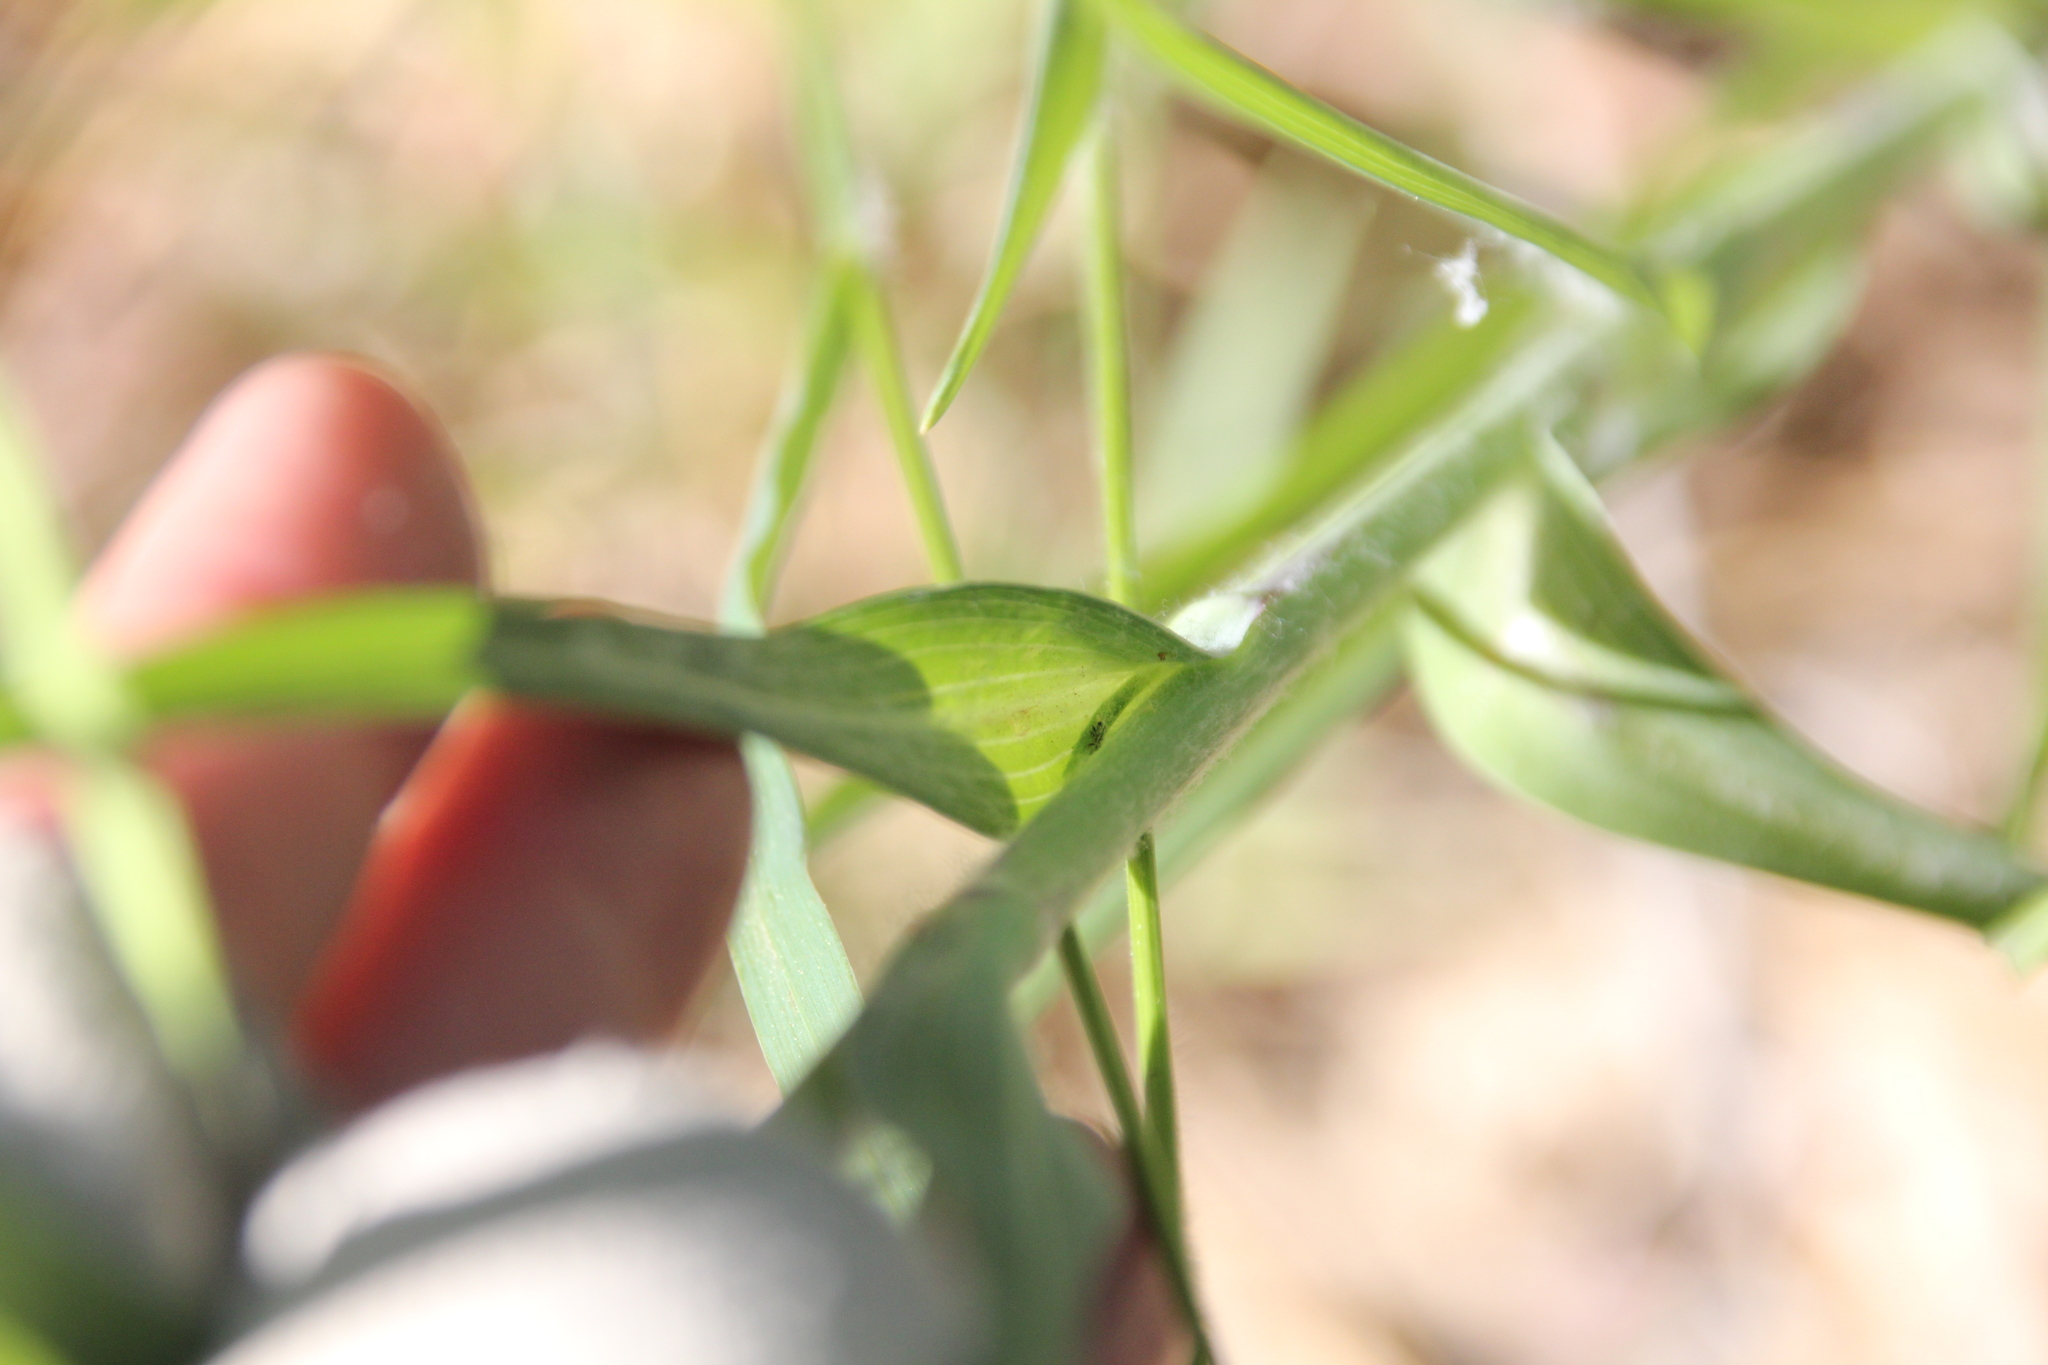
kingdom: Plantae
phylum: Tracheophyta
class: Magnoliopsida
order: Asterales
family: Asteraceae
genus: Tragopogon
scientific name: Tragopogon dubius
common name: Yellow salsify
